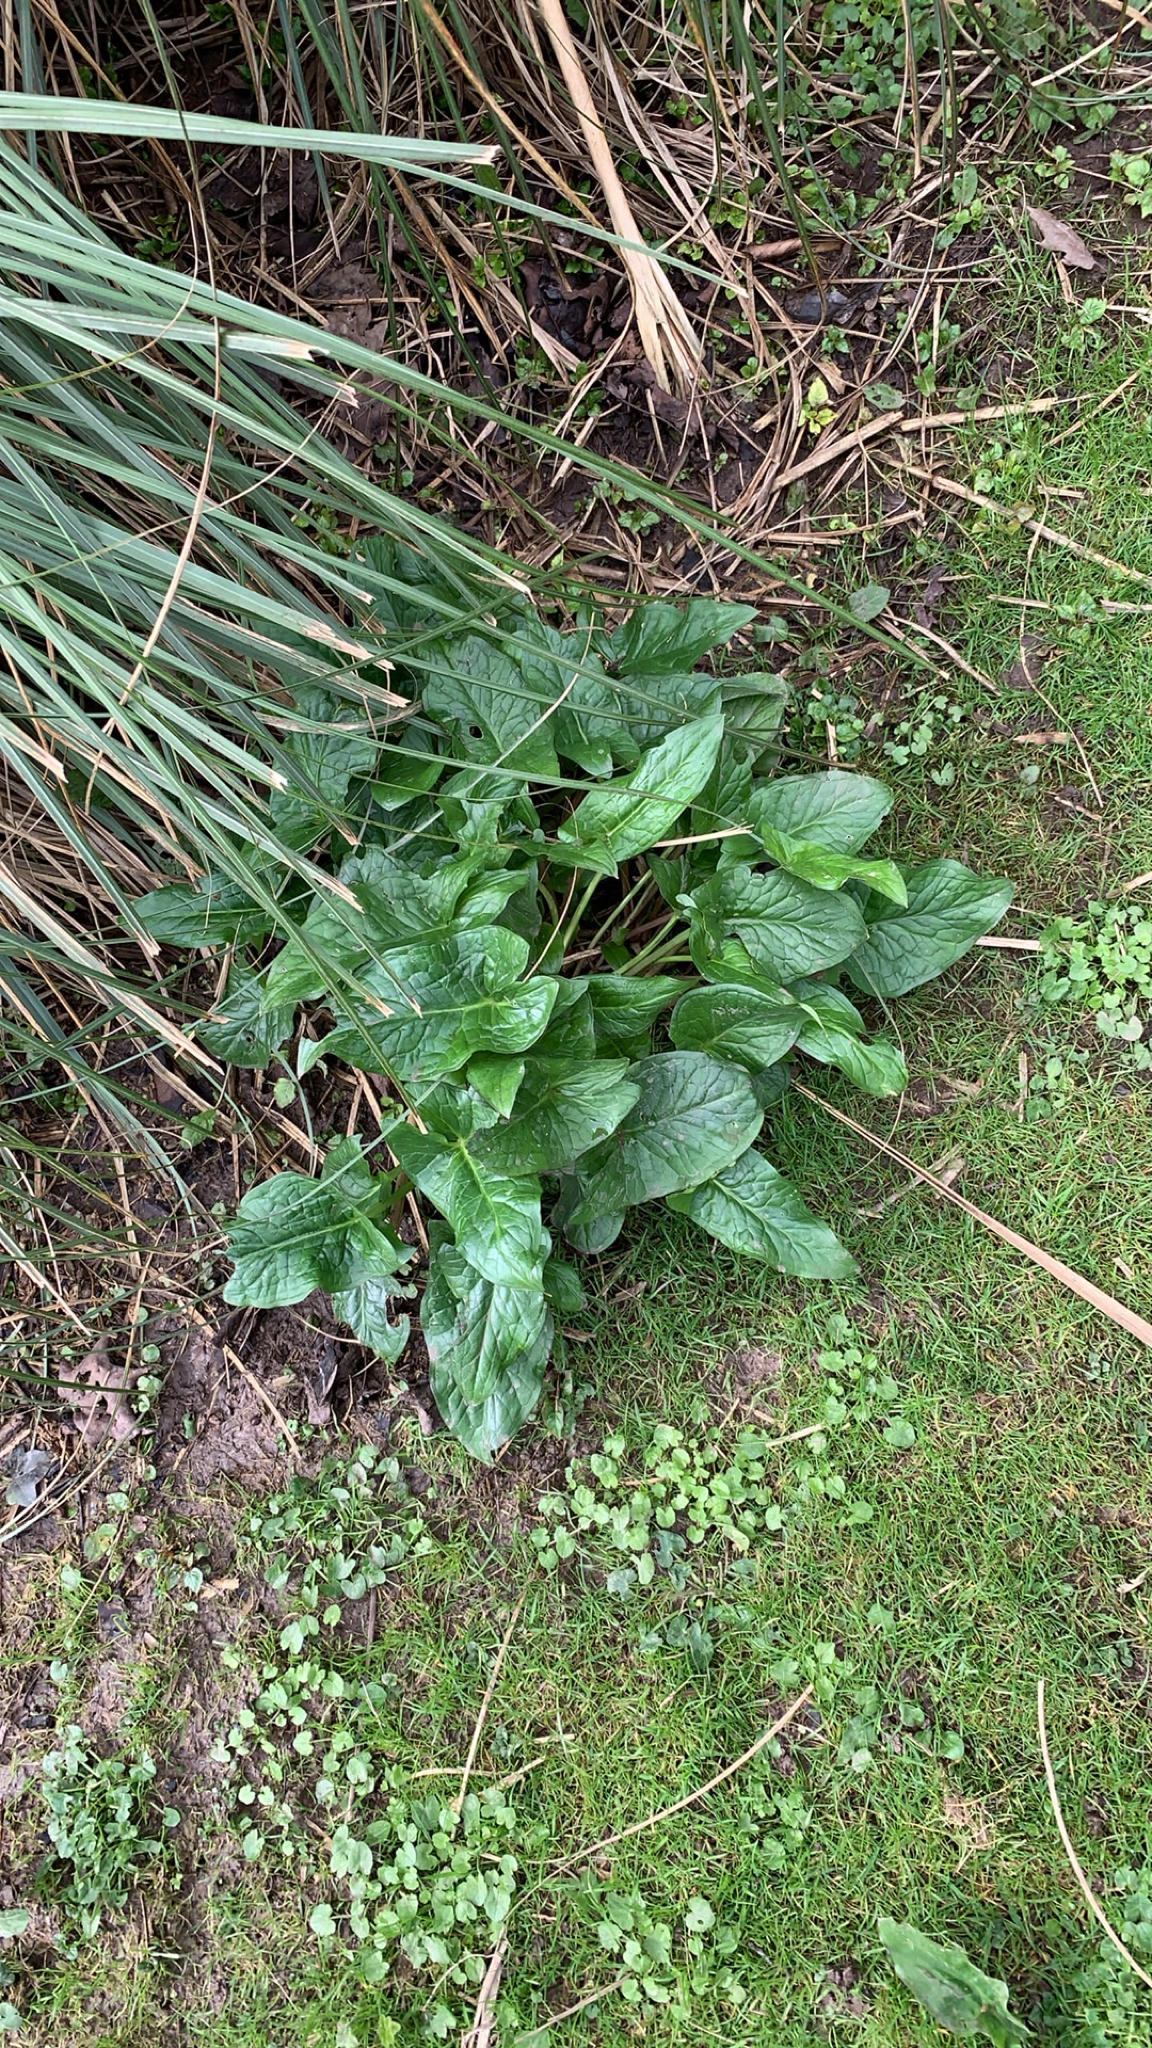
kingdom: Plantae
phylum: Tracheophyta
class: Liliopsida
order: Alismatales
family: Araceae
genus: Arum
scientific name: Arum maculatum
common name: Lords-and-ladies
